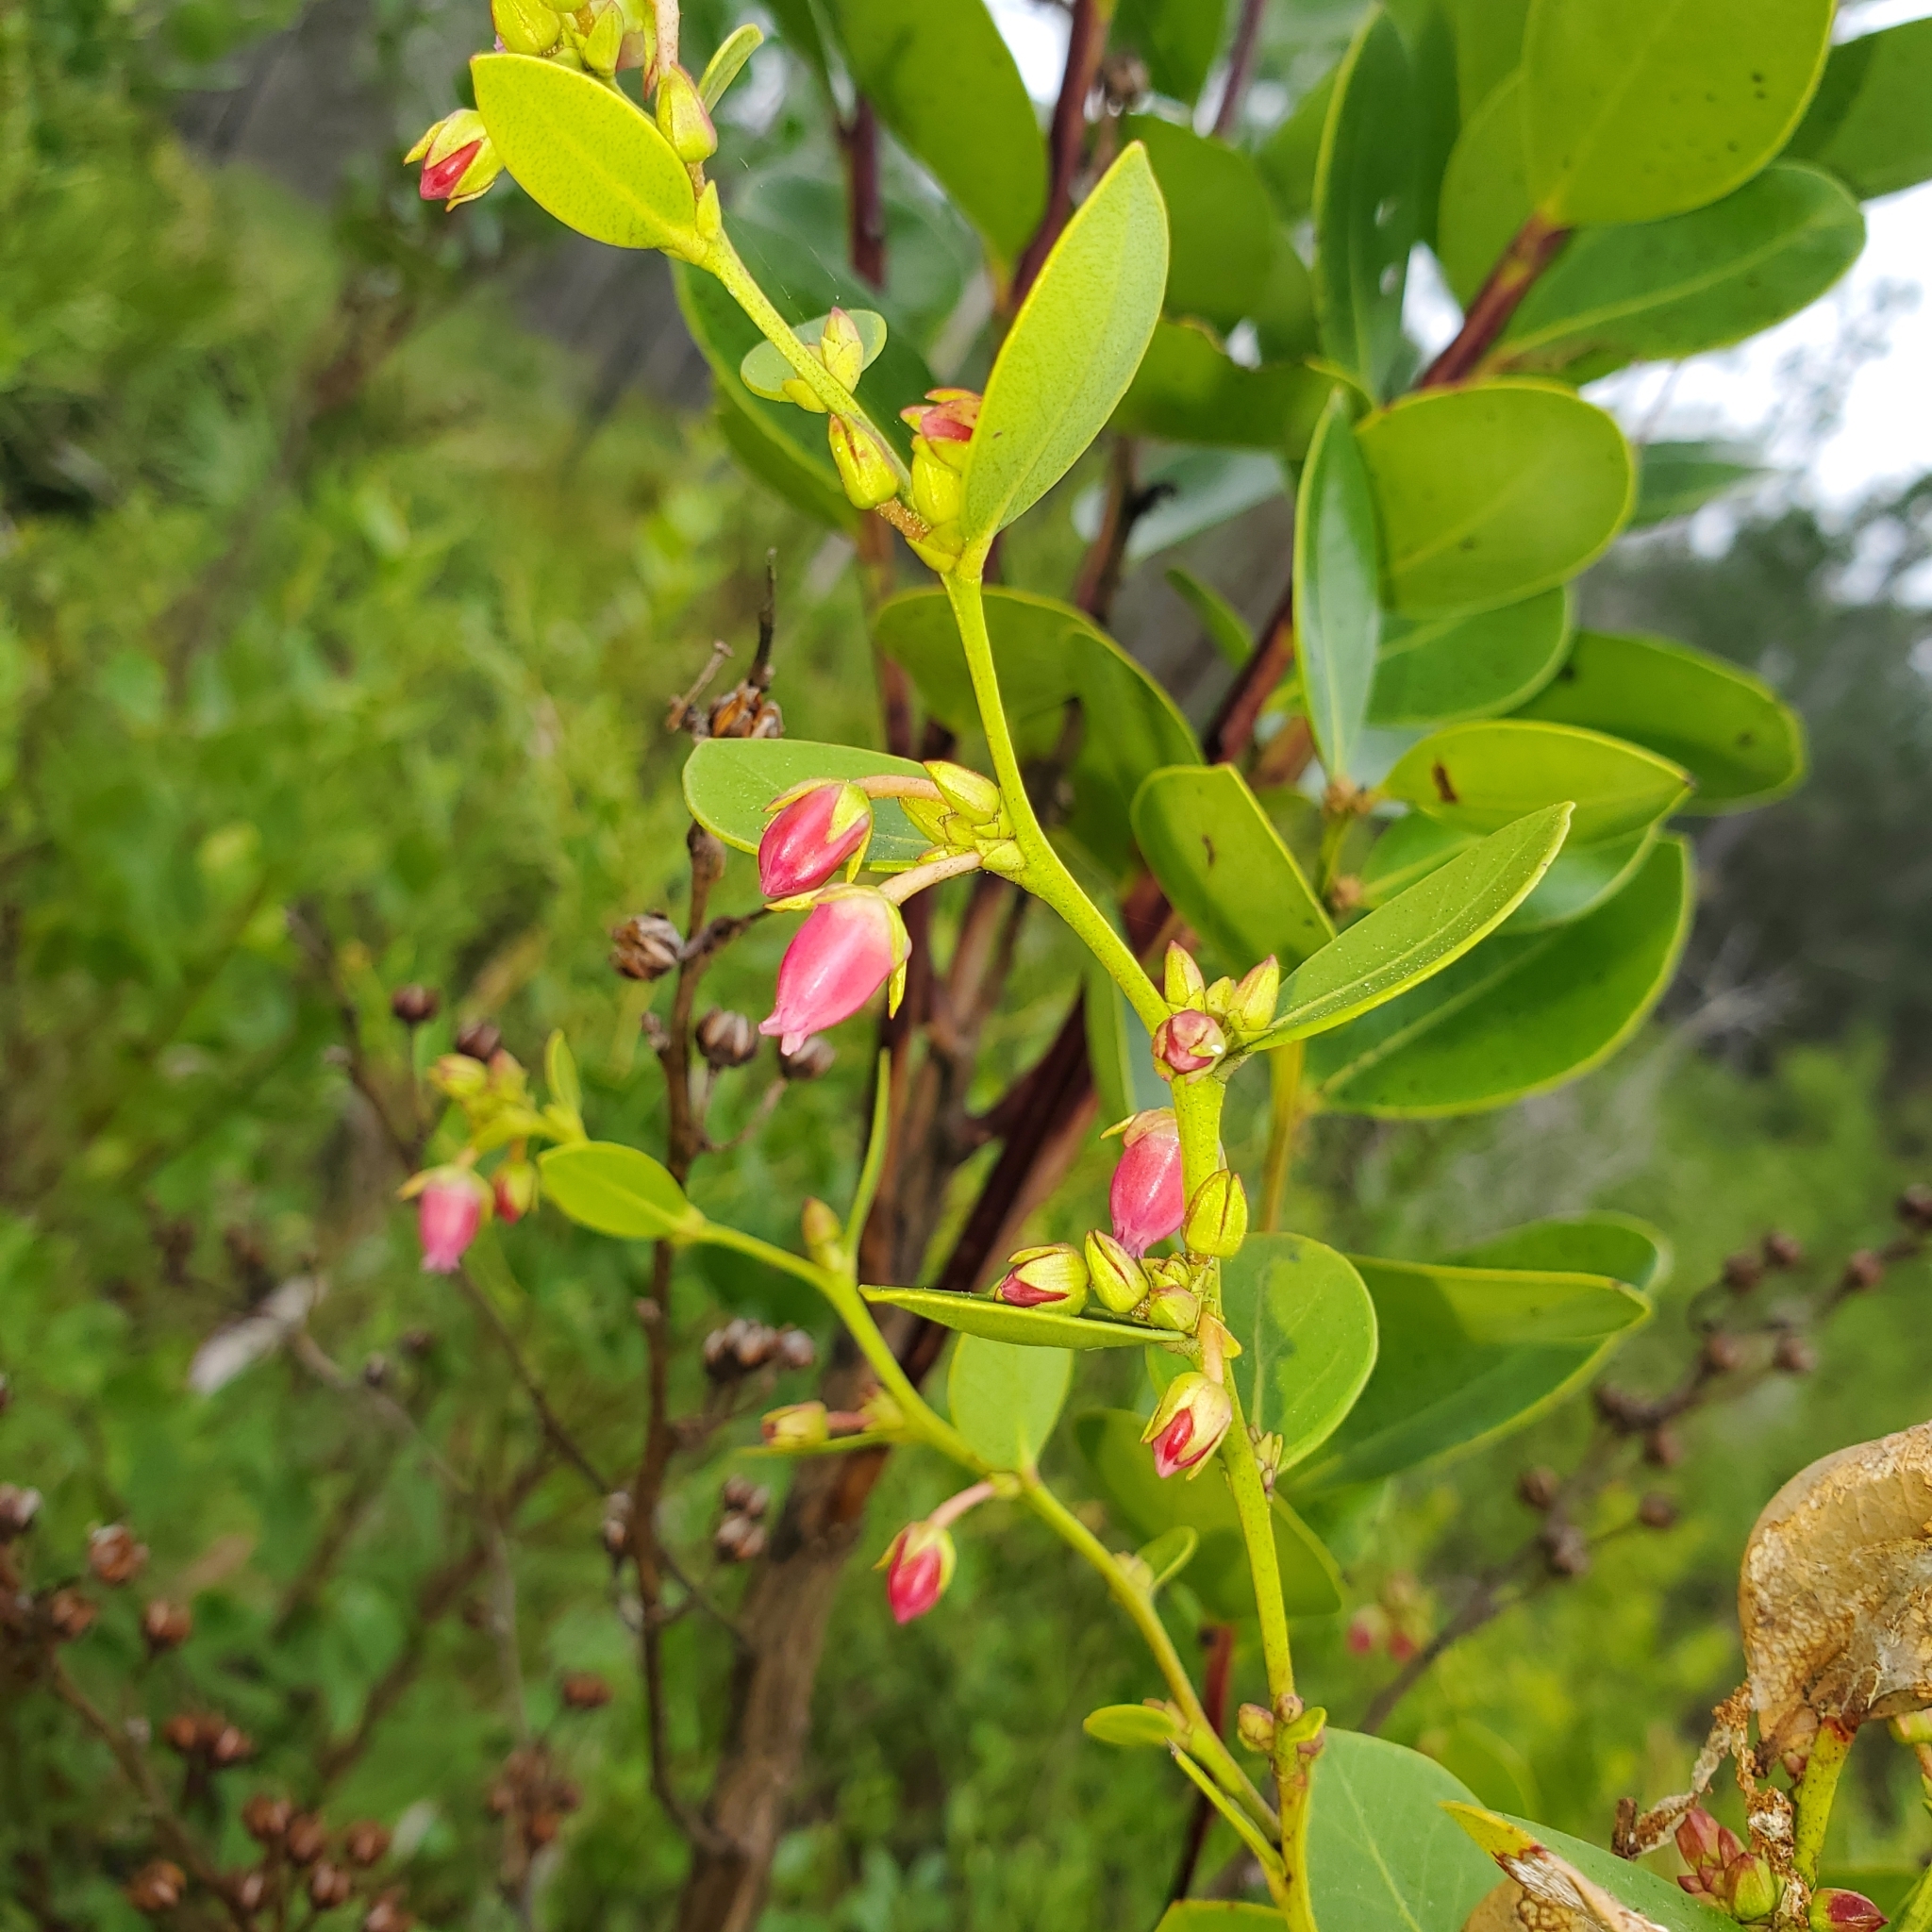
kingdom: Plantae
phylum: Tracheophyta
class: Magnoliopsida
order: Ericales
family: Ericaceae
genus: Lyonia
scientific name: Lyonia lucida
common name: Fetterbush
